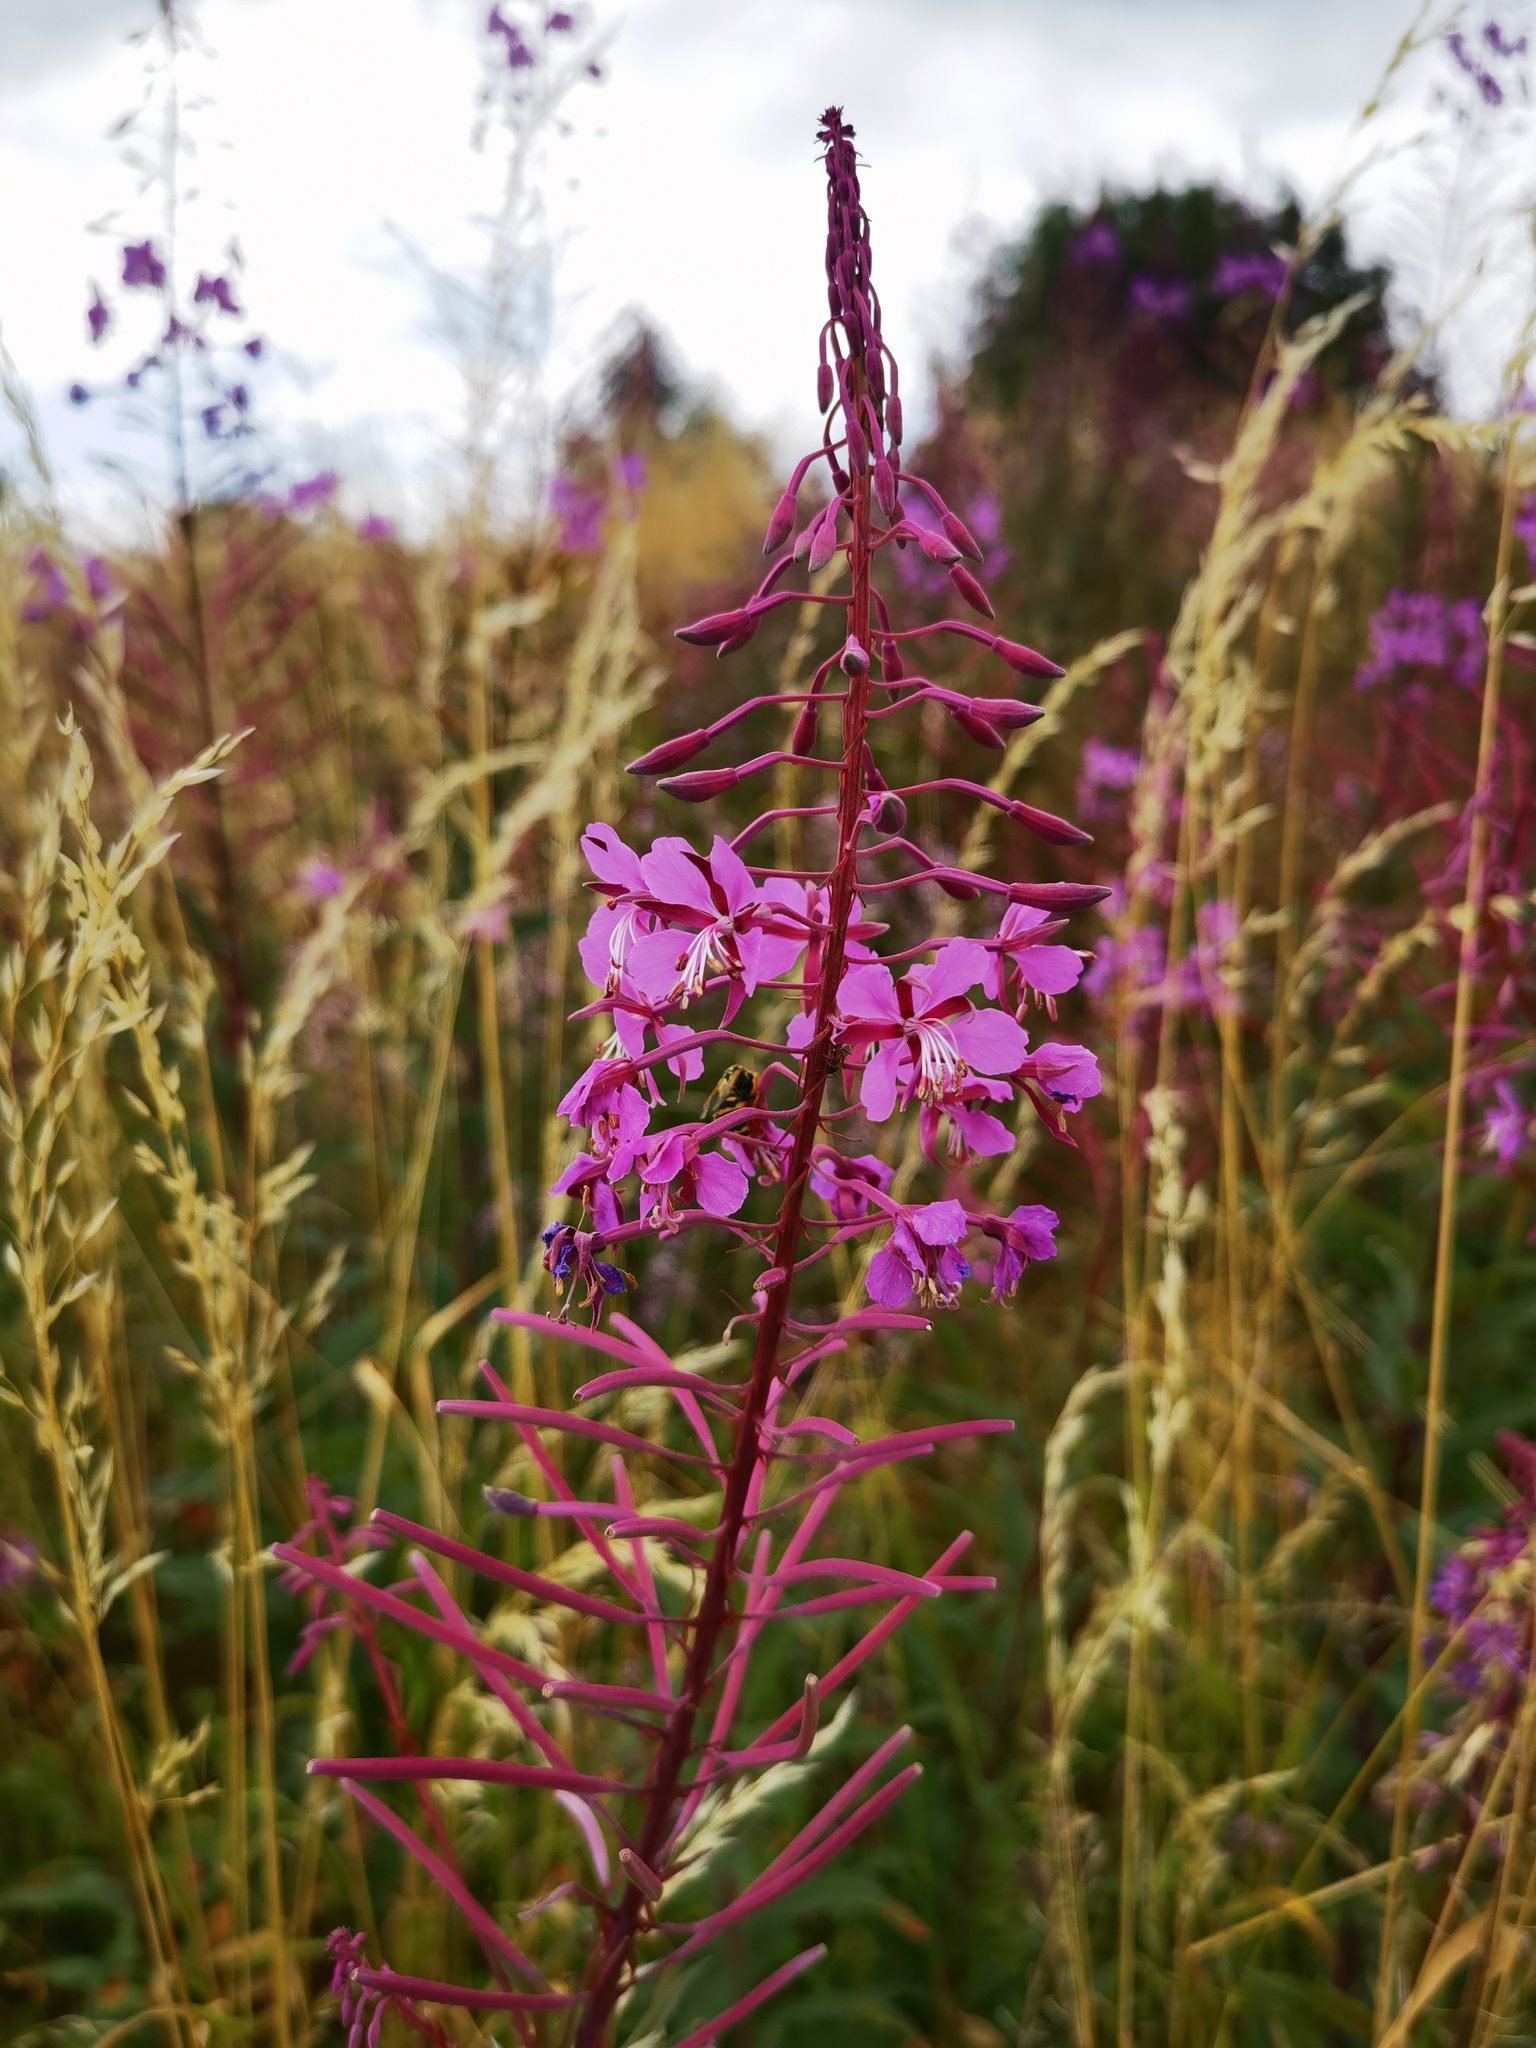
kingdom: Plantae
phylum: Tracheophyta
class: Magnoliopsida
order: Myrtales
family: Onagraceae
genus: Chamaenerion
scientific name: Chamaenerion angustifolium
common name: Fireweed
